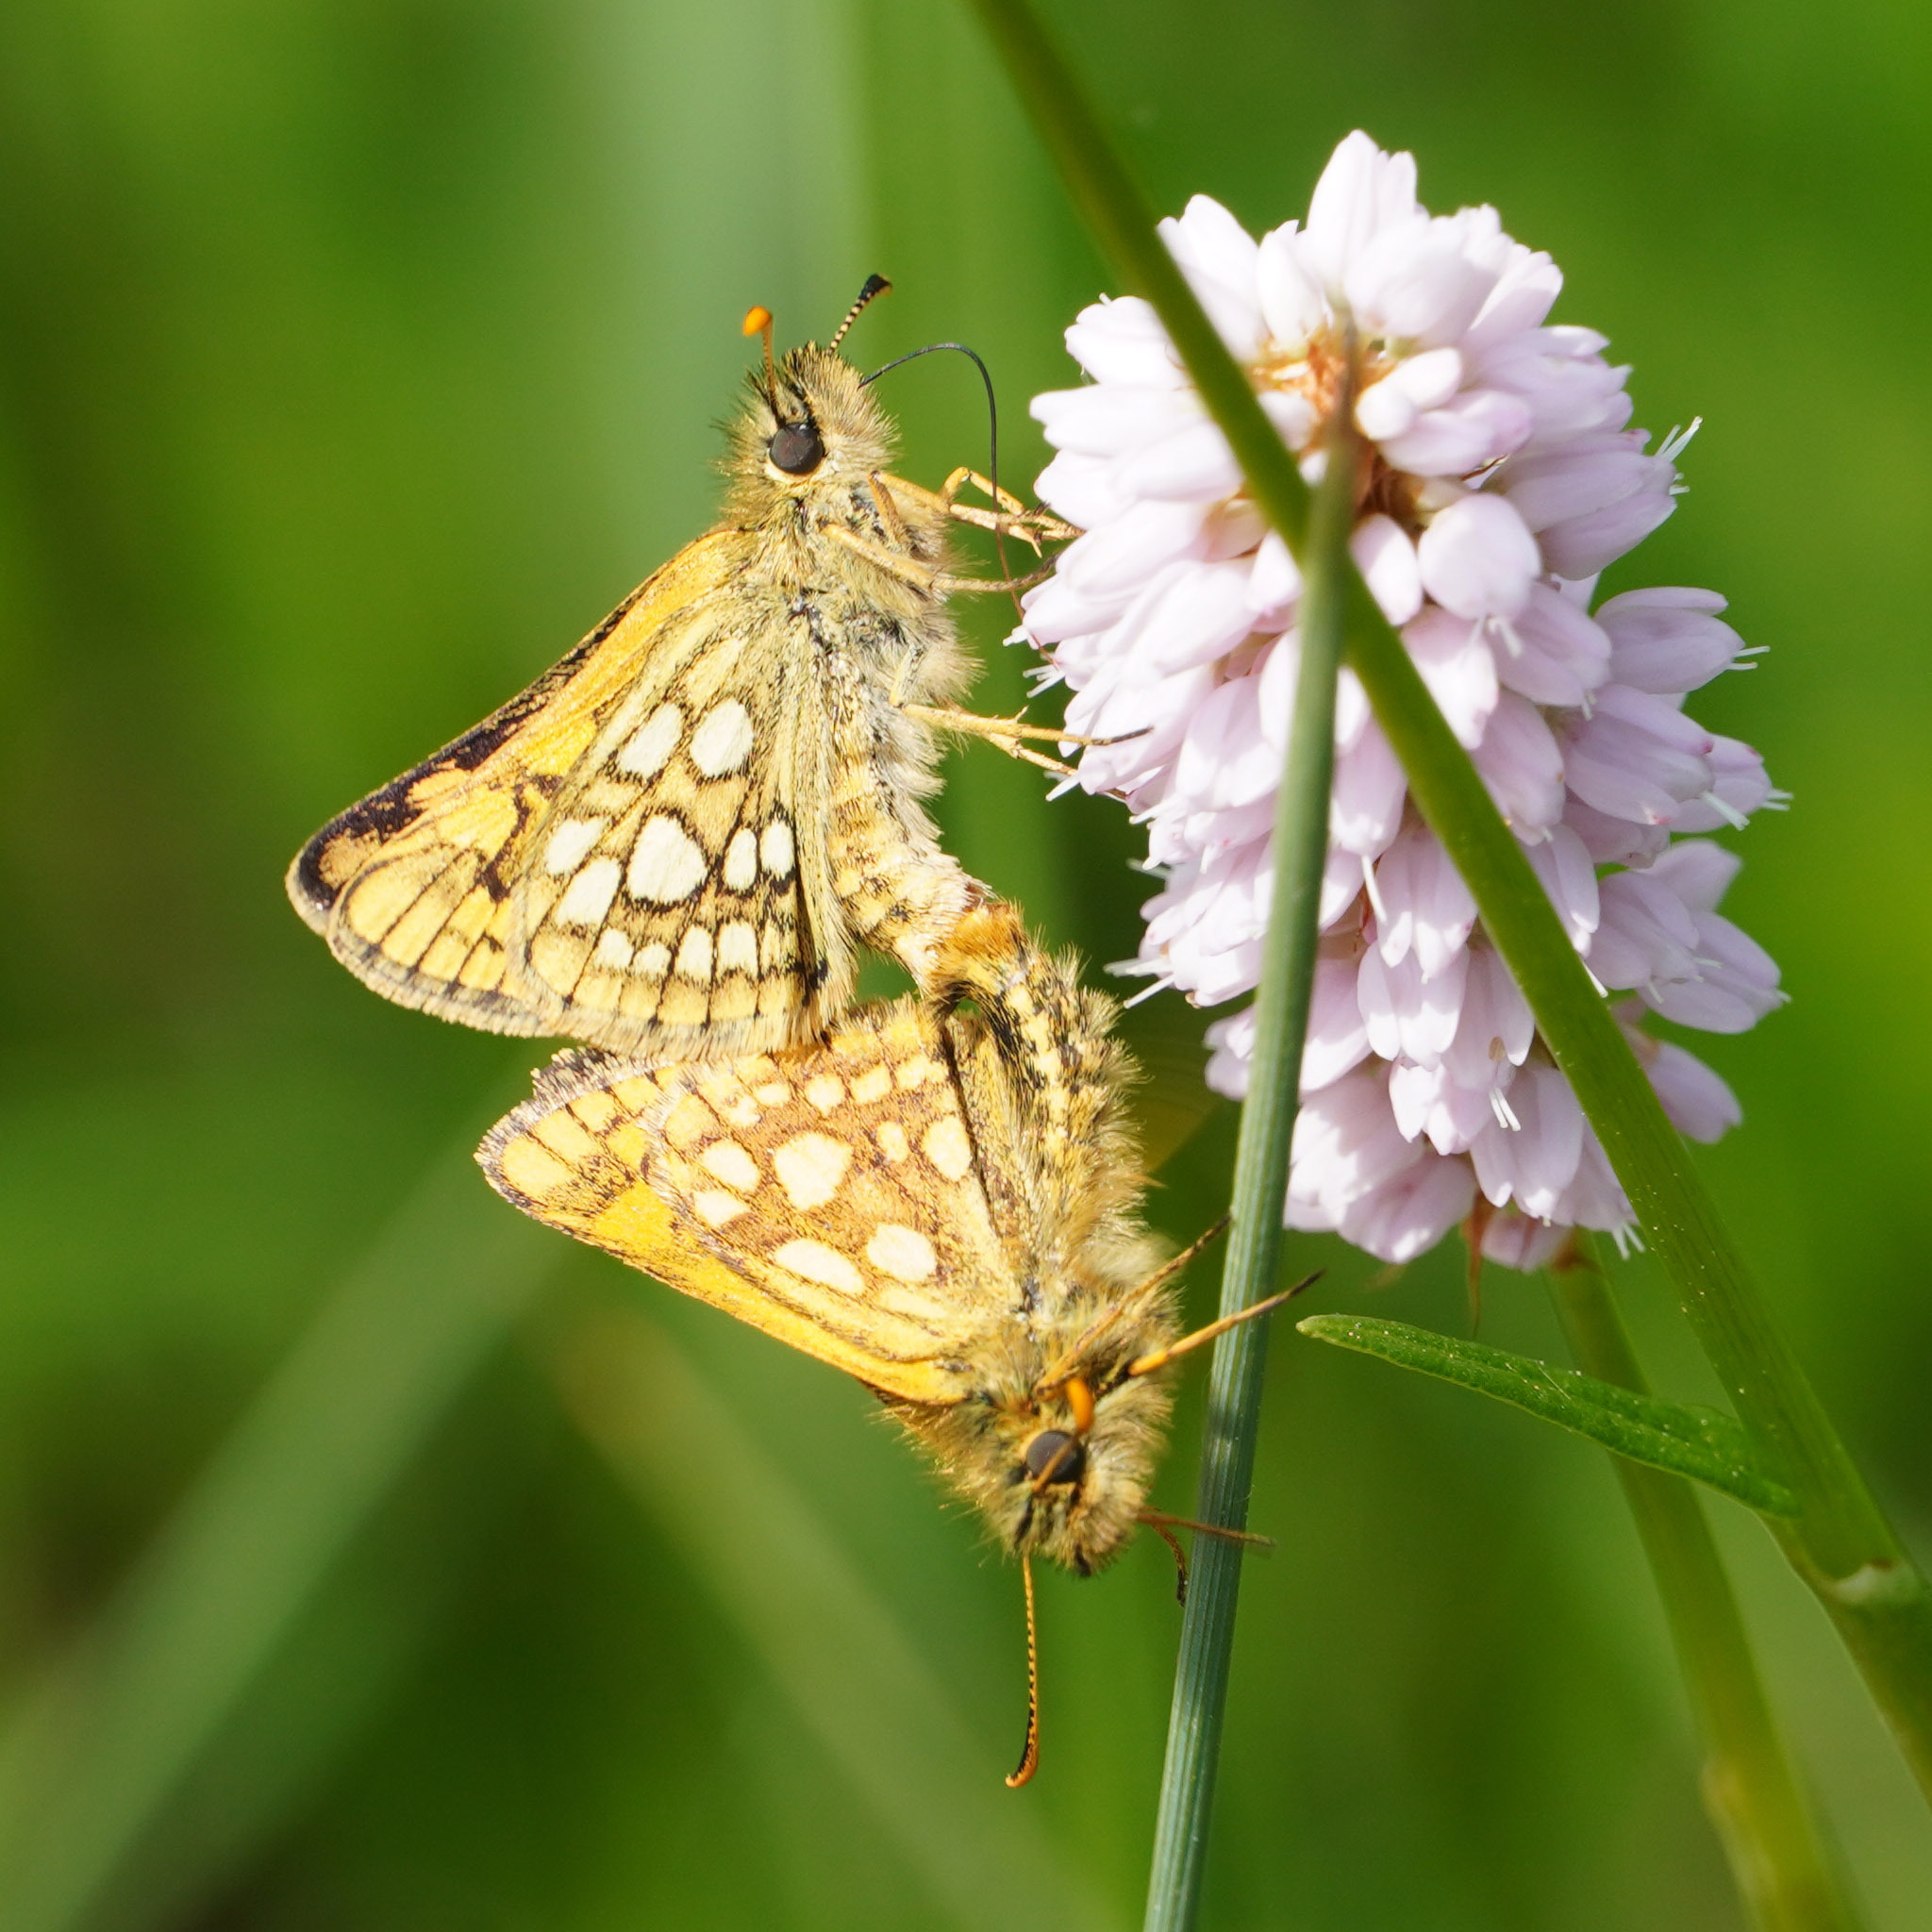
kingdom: Animalia
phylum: Arthropoda
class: Insecta
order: Lepidoptera
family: Hesperiidae
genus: Carterocephalus
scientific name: Carterocephalus palaemon
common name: Chequered skipper
